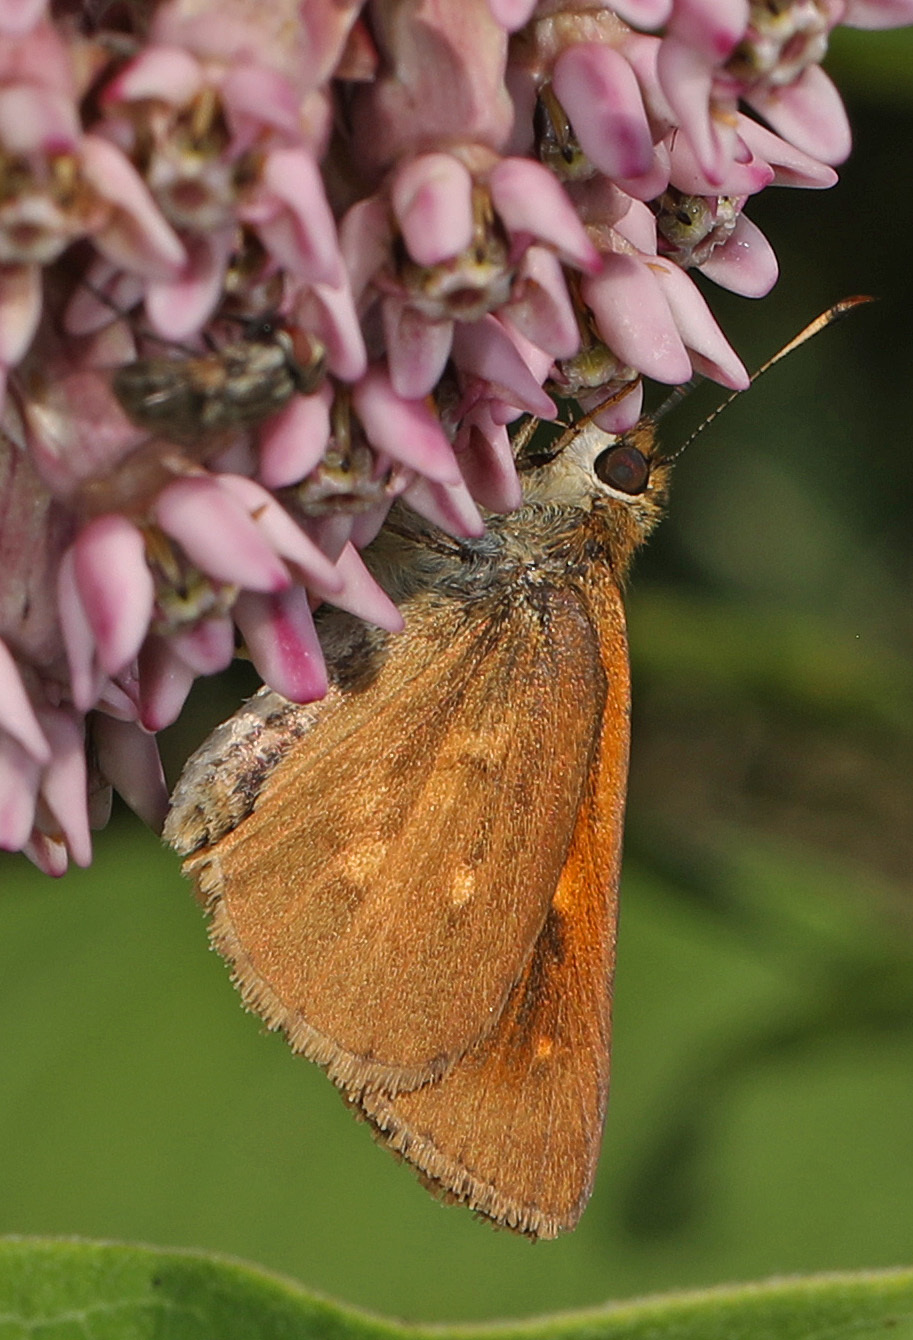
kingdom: Animalia
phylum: Arthropoda
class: Insecta
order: Lepidoptera
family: Hesperiidae
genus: Poanes
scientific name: Poanes viator
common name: Broad-winged skipper
